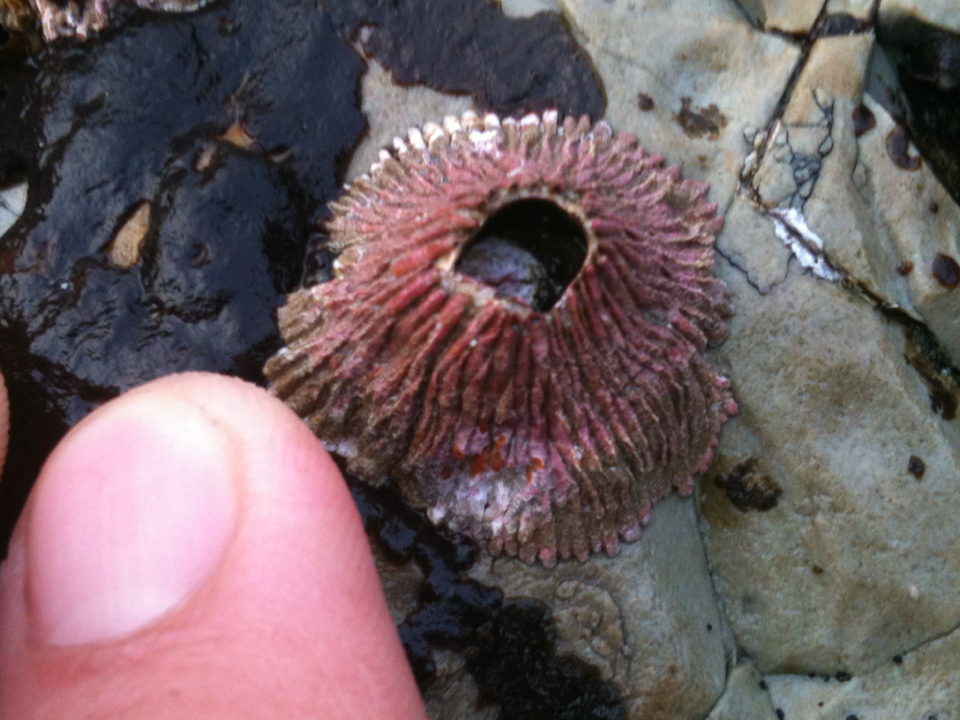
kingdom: Animalia
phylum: Arthropoda
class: Maxillopoda
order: Sessilia
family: Tetraclitidae
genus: Tetraclita
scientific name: Tetraclita rubescens
